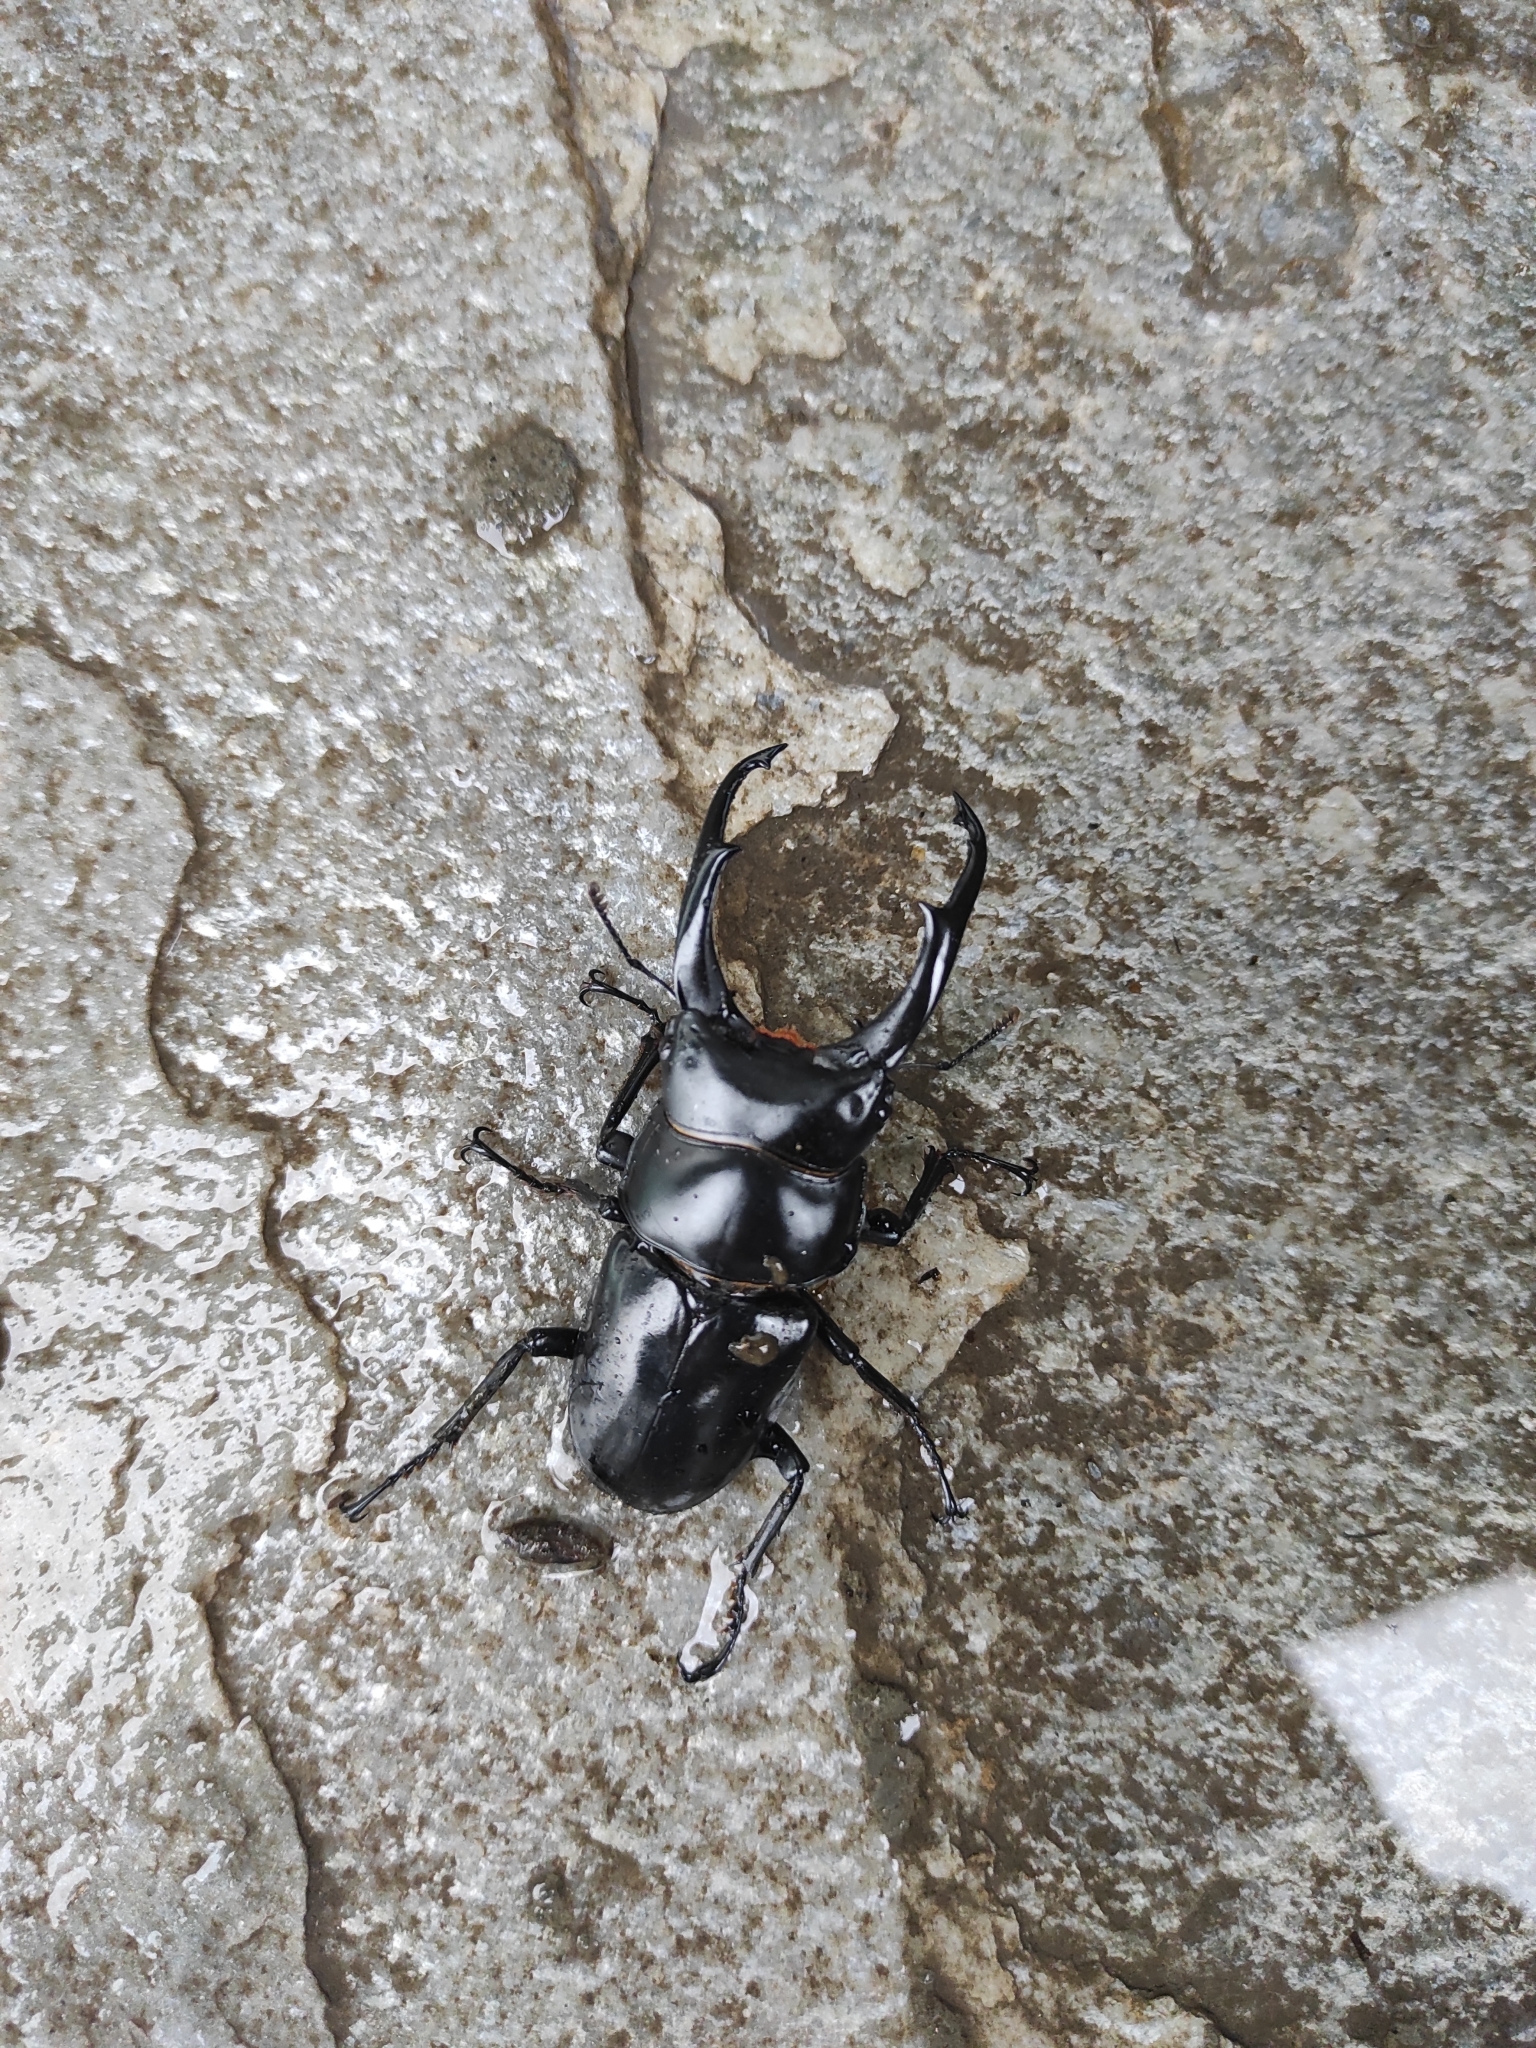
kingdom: Animalia
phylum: Arthropoda
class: Insecta
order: Coleoptera
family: Lucanidae
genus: Dorcus
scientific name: Dorcus nepalensis
